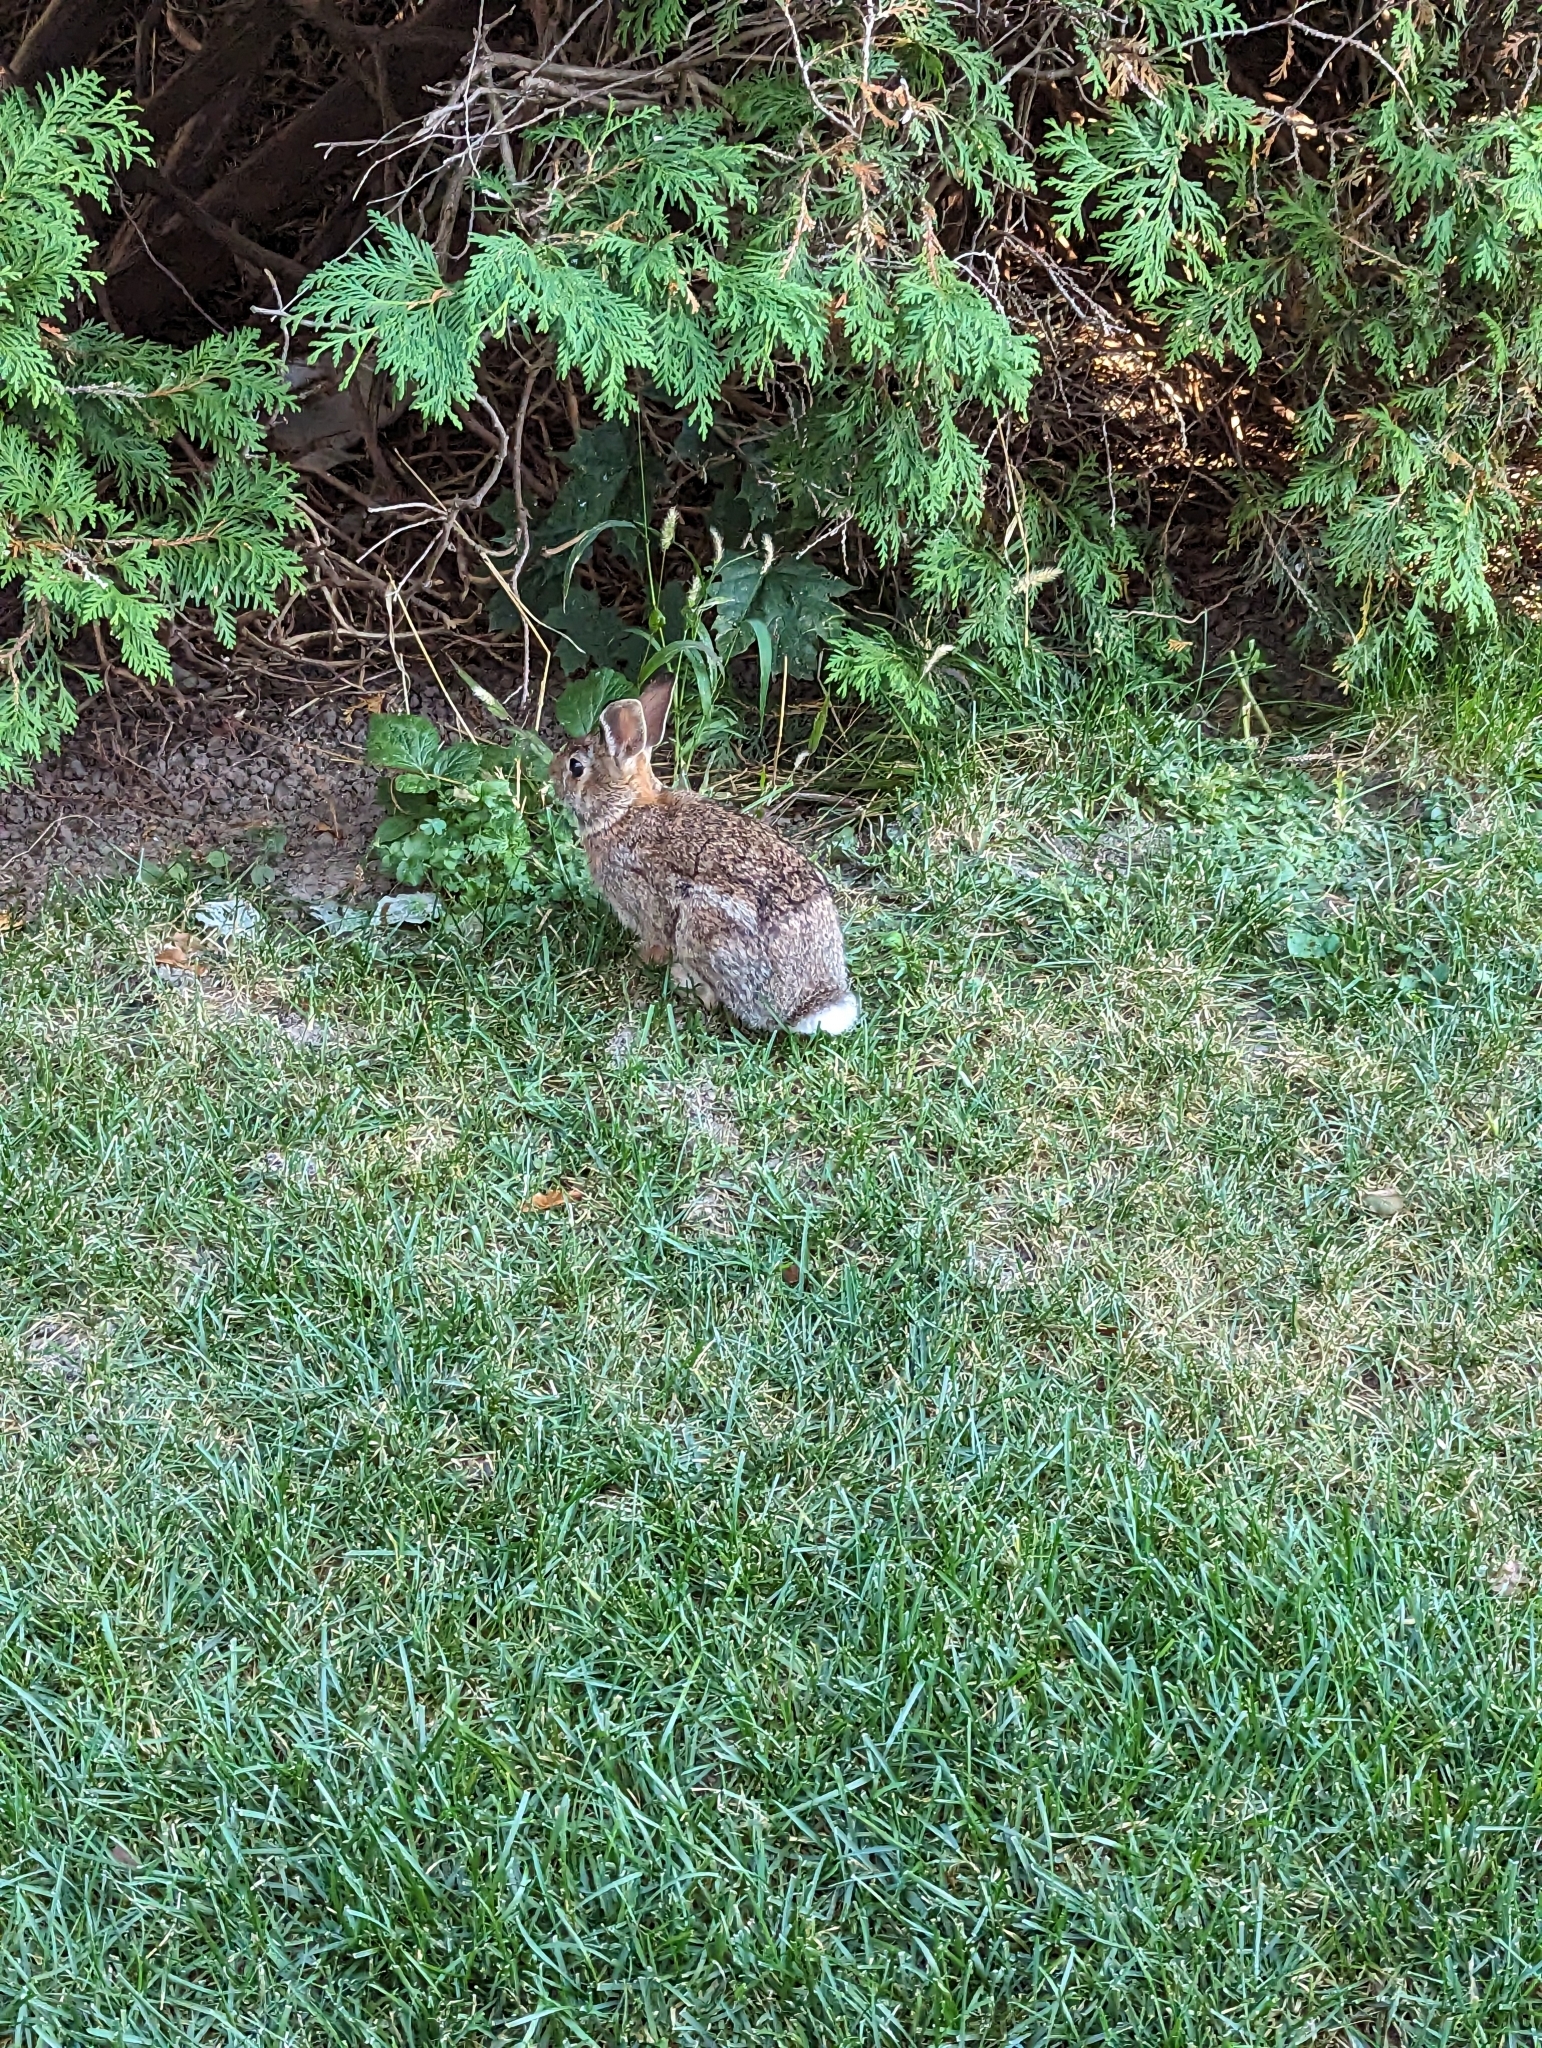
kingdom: Animalia
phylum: Chordata
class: Mammalia
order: Lagomorpha
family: Leporidae
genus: Sylvilagus
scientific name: Sylvilagus floridanus
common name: Eastern cottontail
